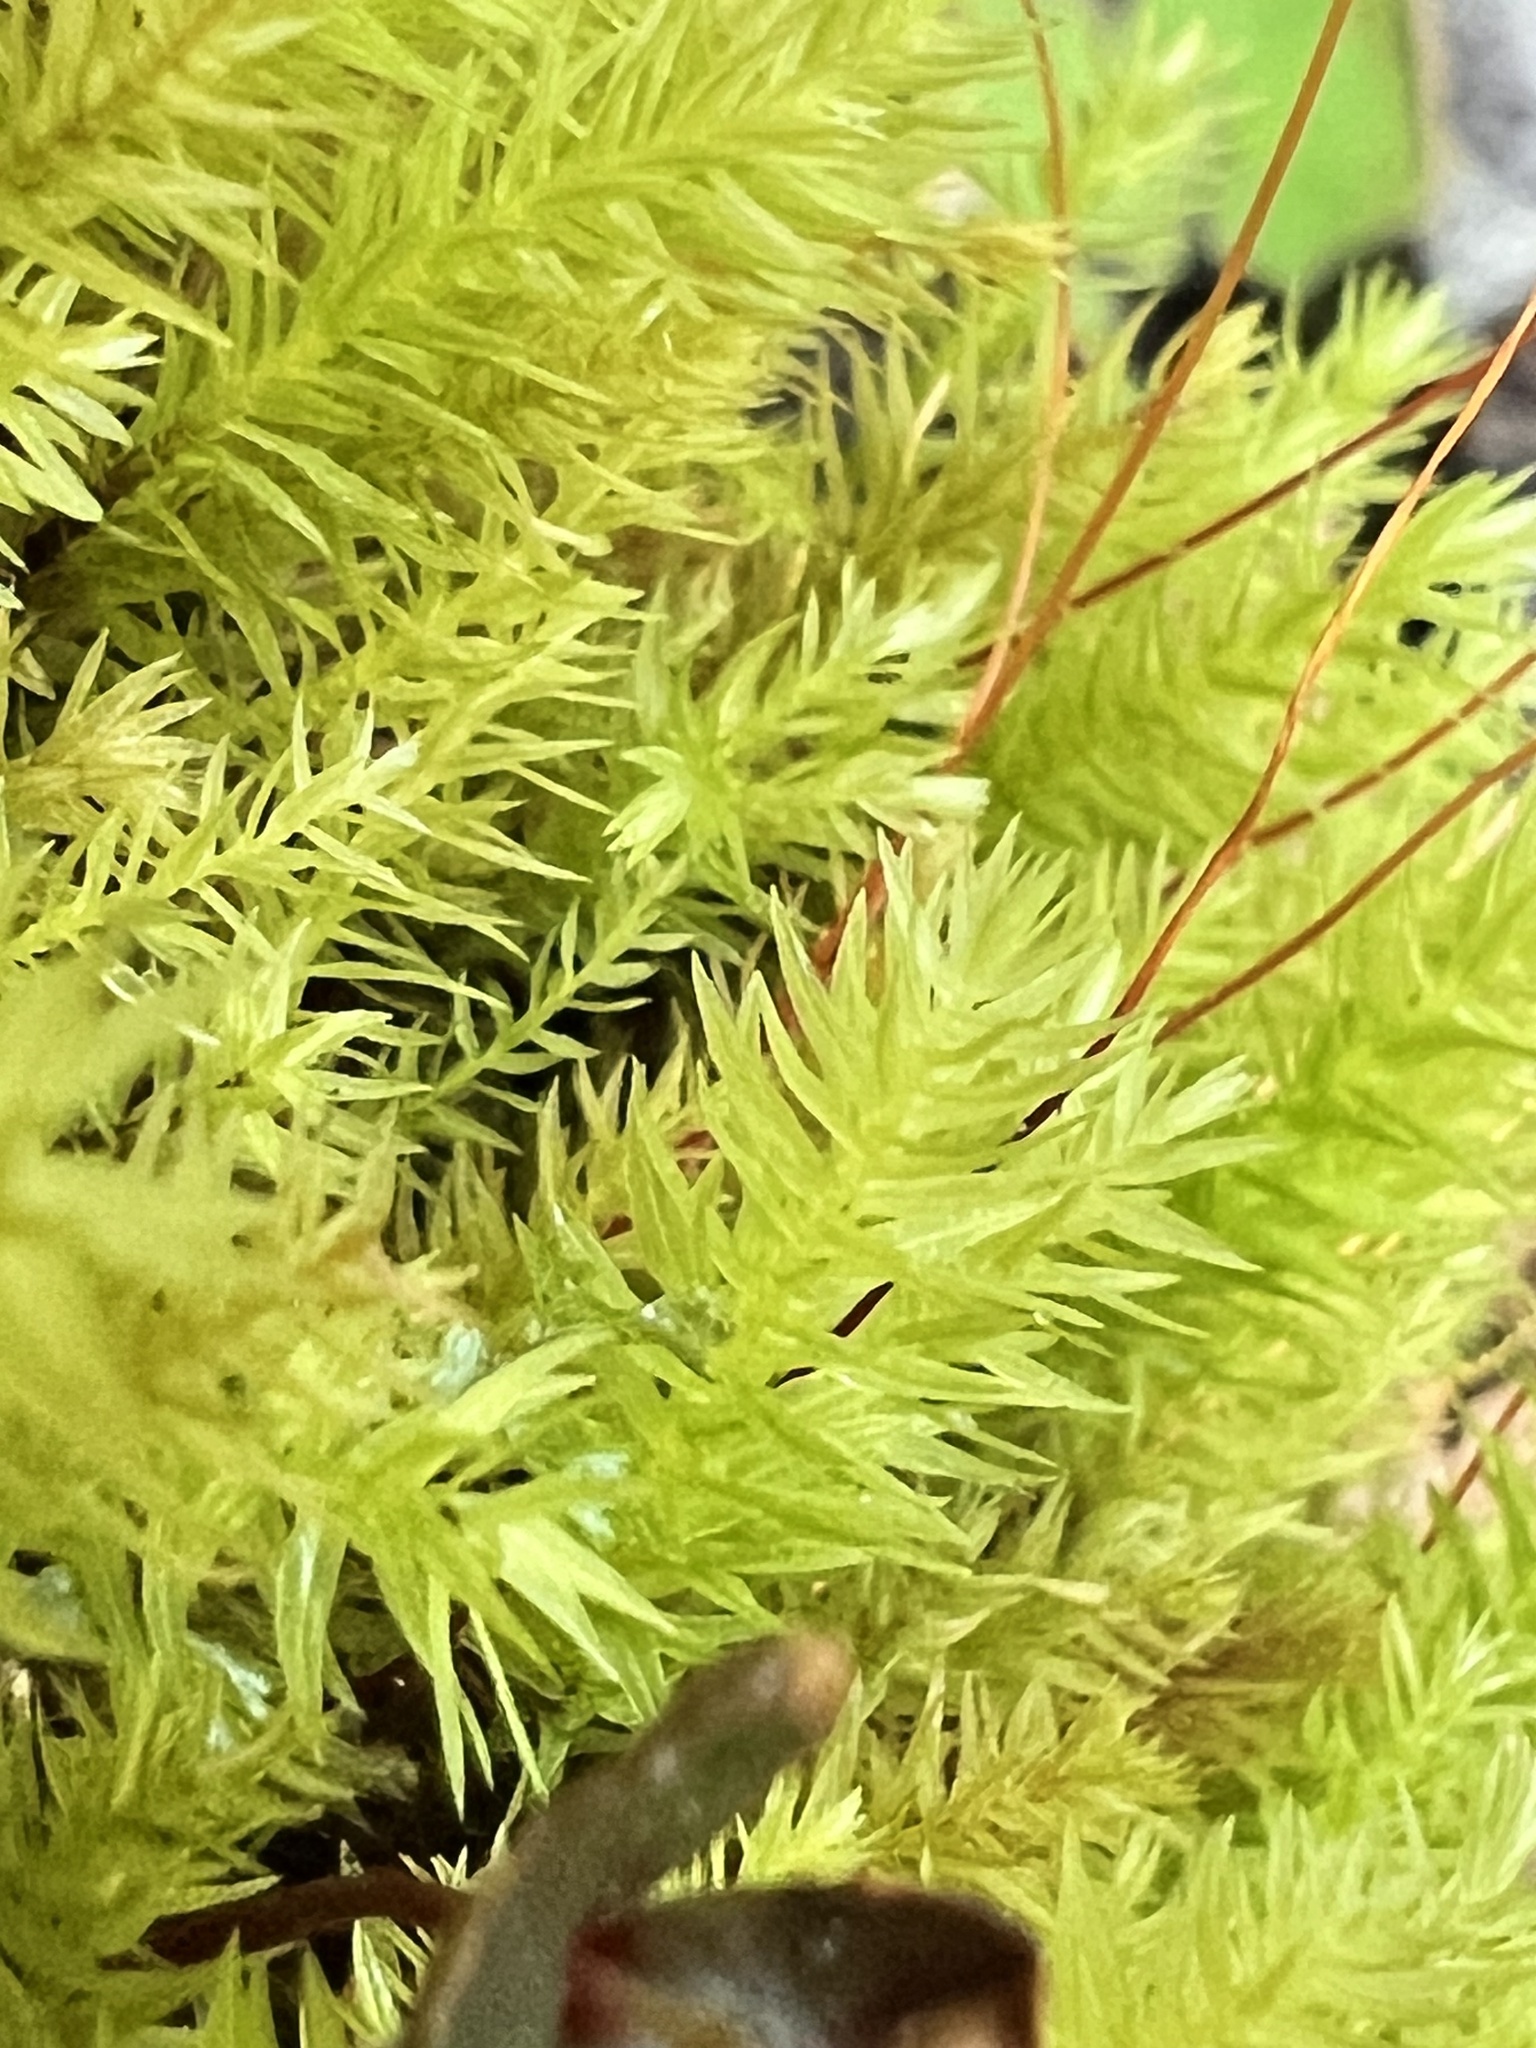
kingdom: Plantae
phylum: Bryophyta
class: Bryopsida
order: Aulacomniales
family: Aulacomniaceae
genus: Hymenodontopsis
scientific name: Hymenodontopsis mnioides
